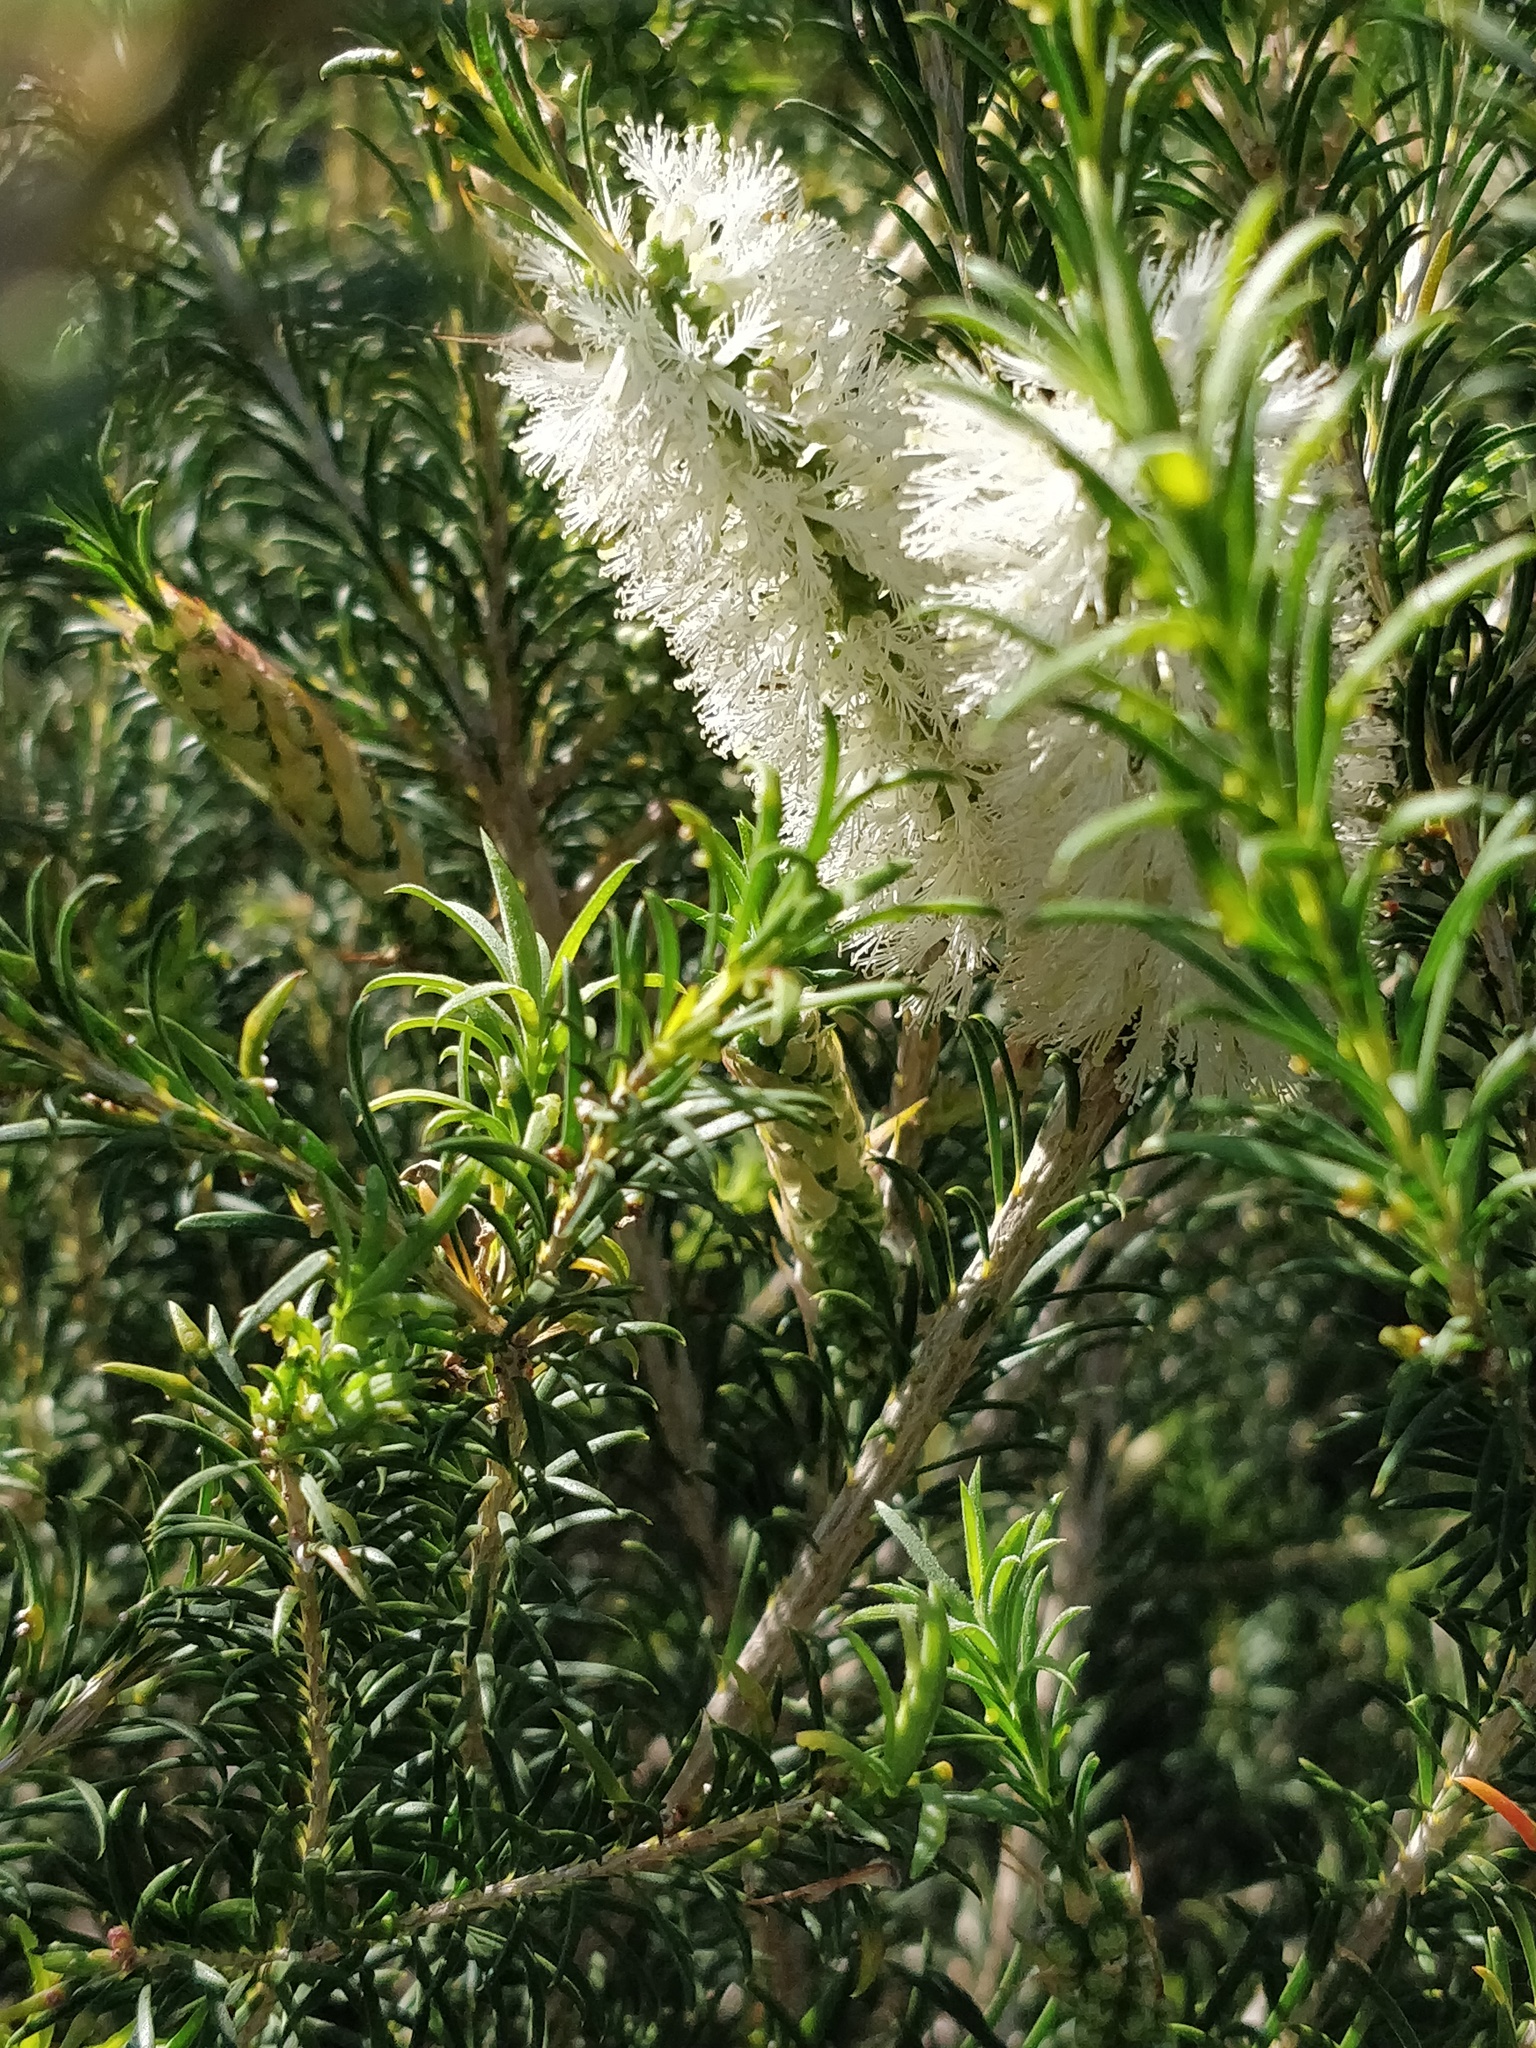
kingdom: Plantae
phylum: Tracheophyta
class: Magnoliopsida
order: Myrtales
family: Myrtaceae
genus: Melaleuca
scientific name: Melaleuca armillaris
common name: Bracelet honey myrtle
